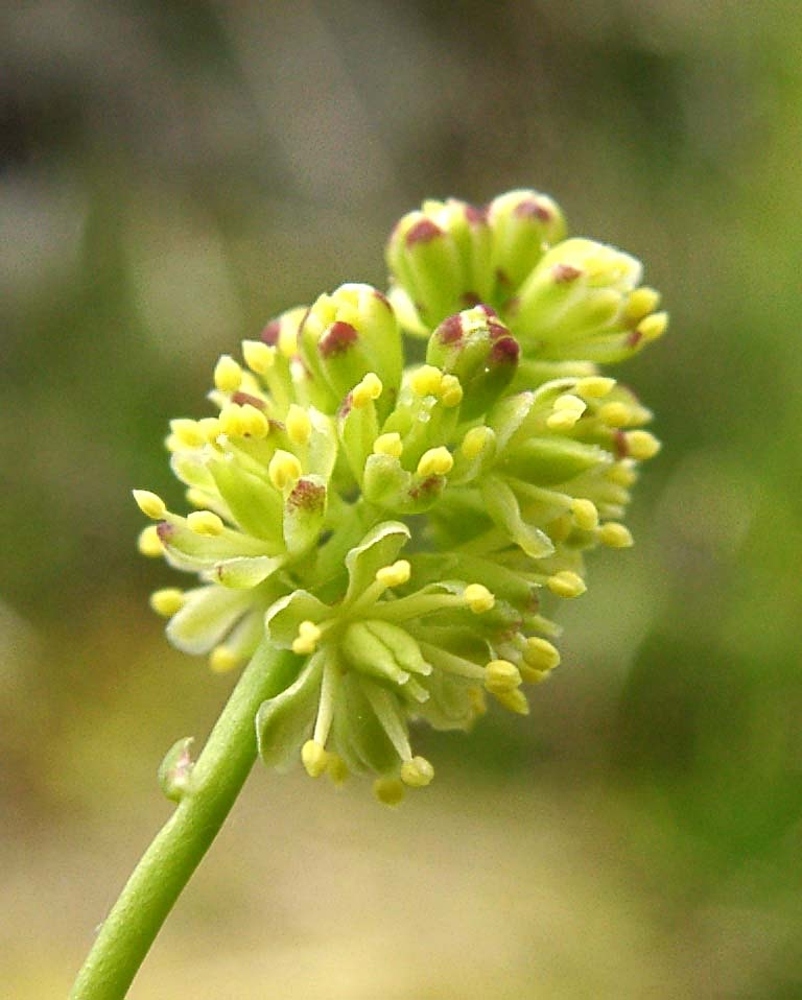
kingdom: Plantae
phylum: Tracheophyta
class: Liliopsida
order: Alismatales
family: Tofieldiaceae
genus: Tofieldia
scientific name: Tofieldia calyculata
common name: German-asphodel
